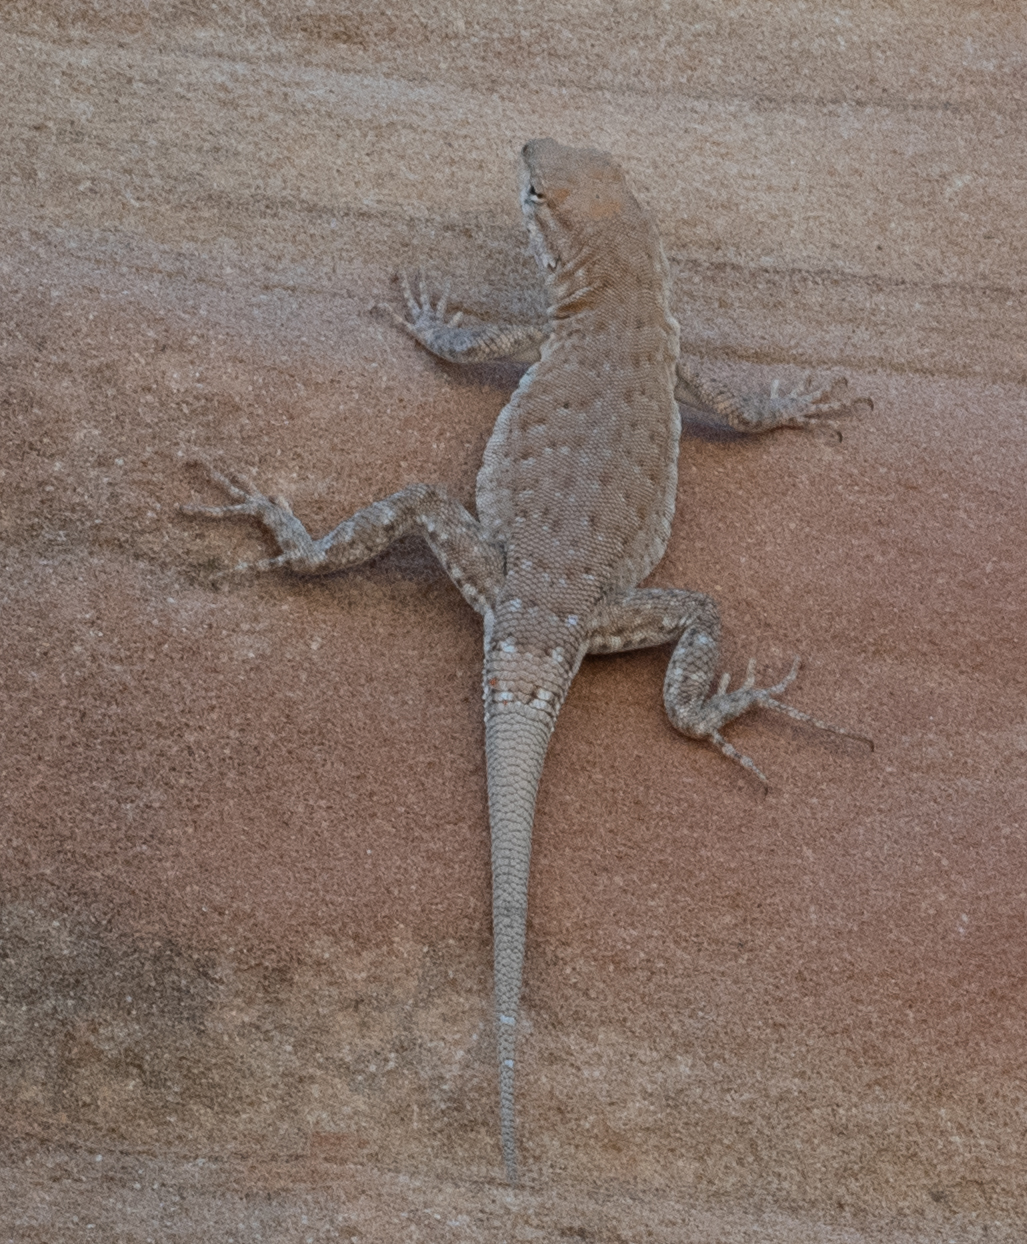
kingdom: Animalia
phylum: Chordata
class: Squamata
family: Phrynosomatidae
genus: Uta
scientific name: Uta stansburiana
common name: Side-blotched lizard
